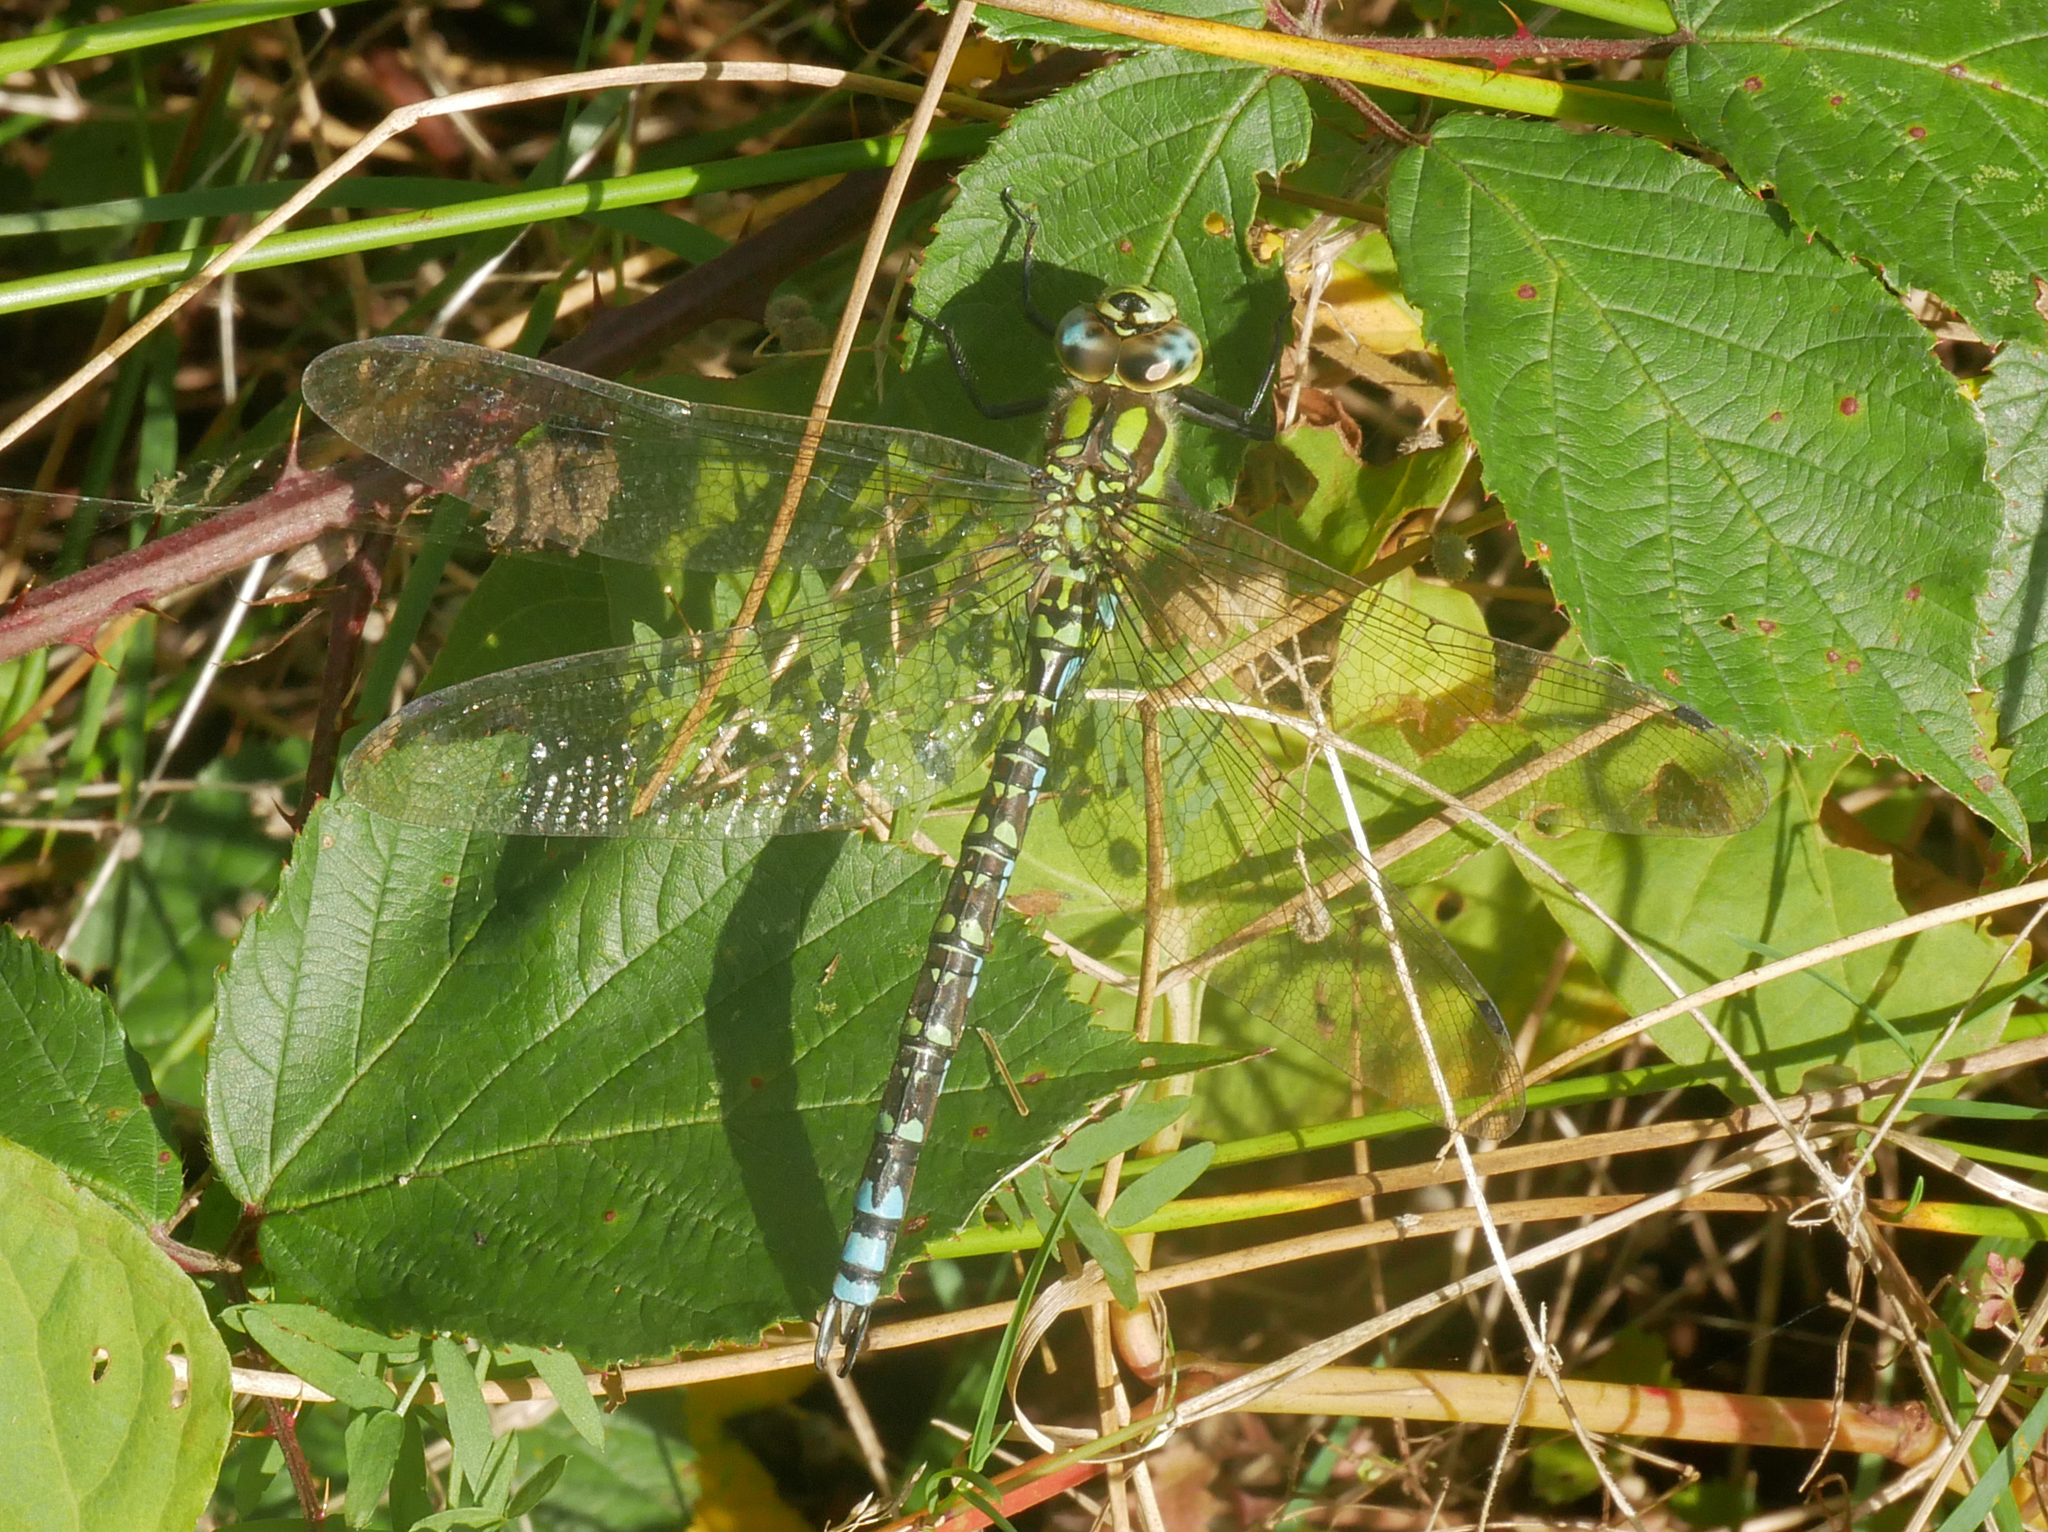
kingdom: Animalia
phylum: Arthropoda
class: Insecta
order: Odonata
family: Aeshnidae
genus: Aeshna
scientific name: Aeshna cyanea
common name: Southern hawker
